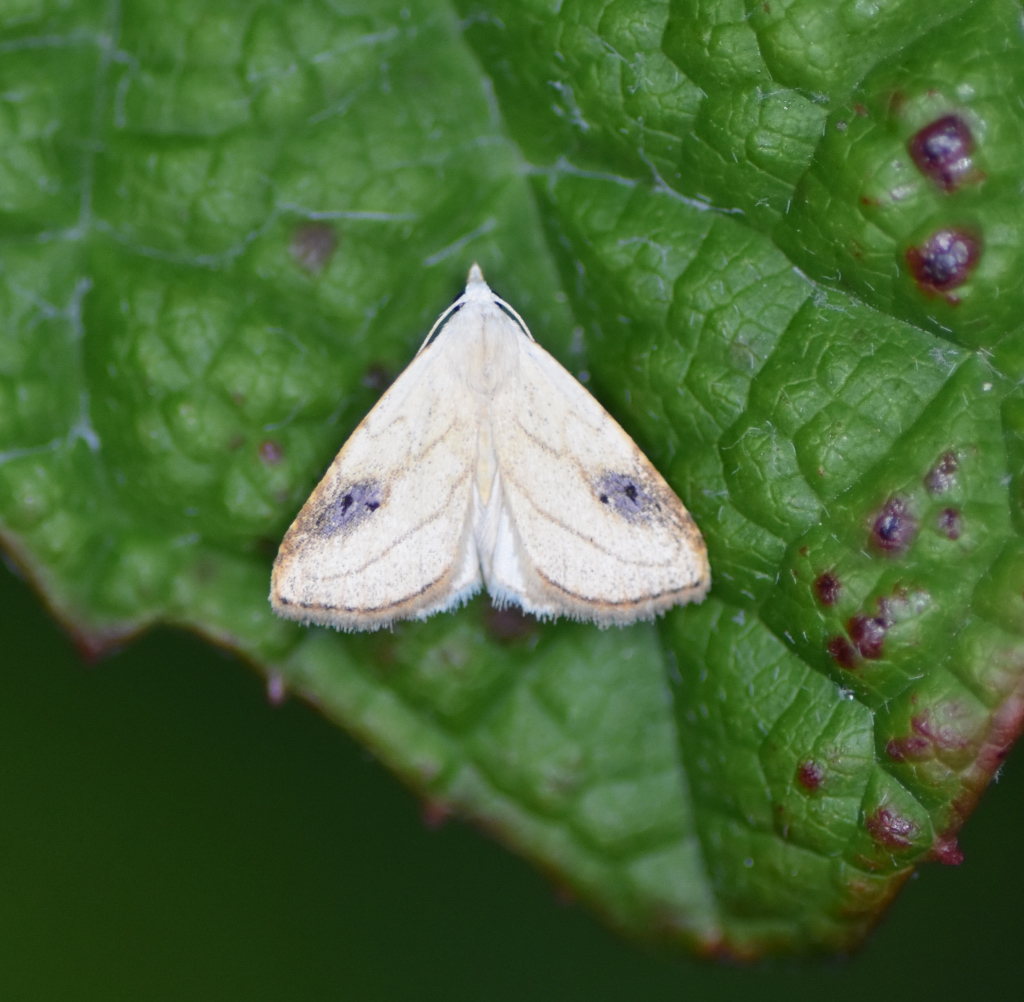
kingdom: Animalia
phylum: Arthropoda
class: Insecta
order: Lepidoptera
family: Erebidae
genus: Rivula
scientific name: Rivula propinqualis
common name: Spotted grass moth
